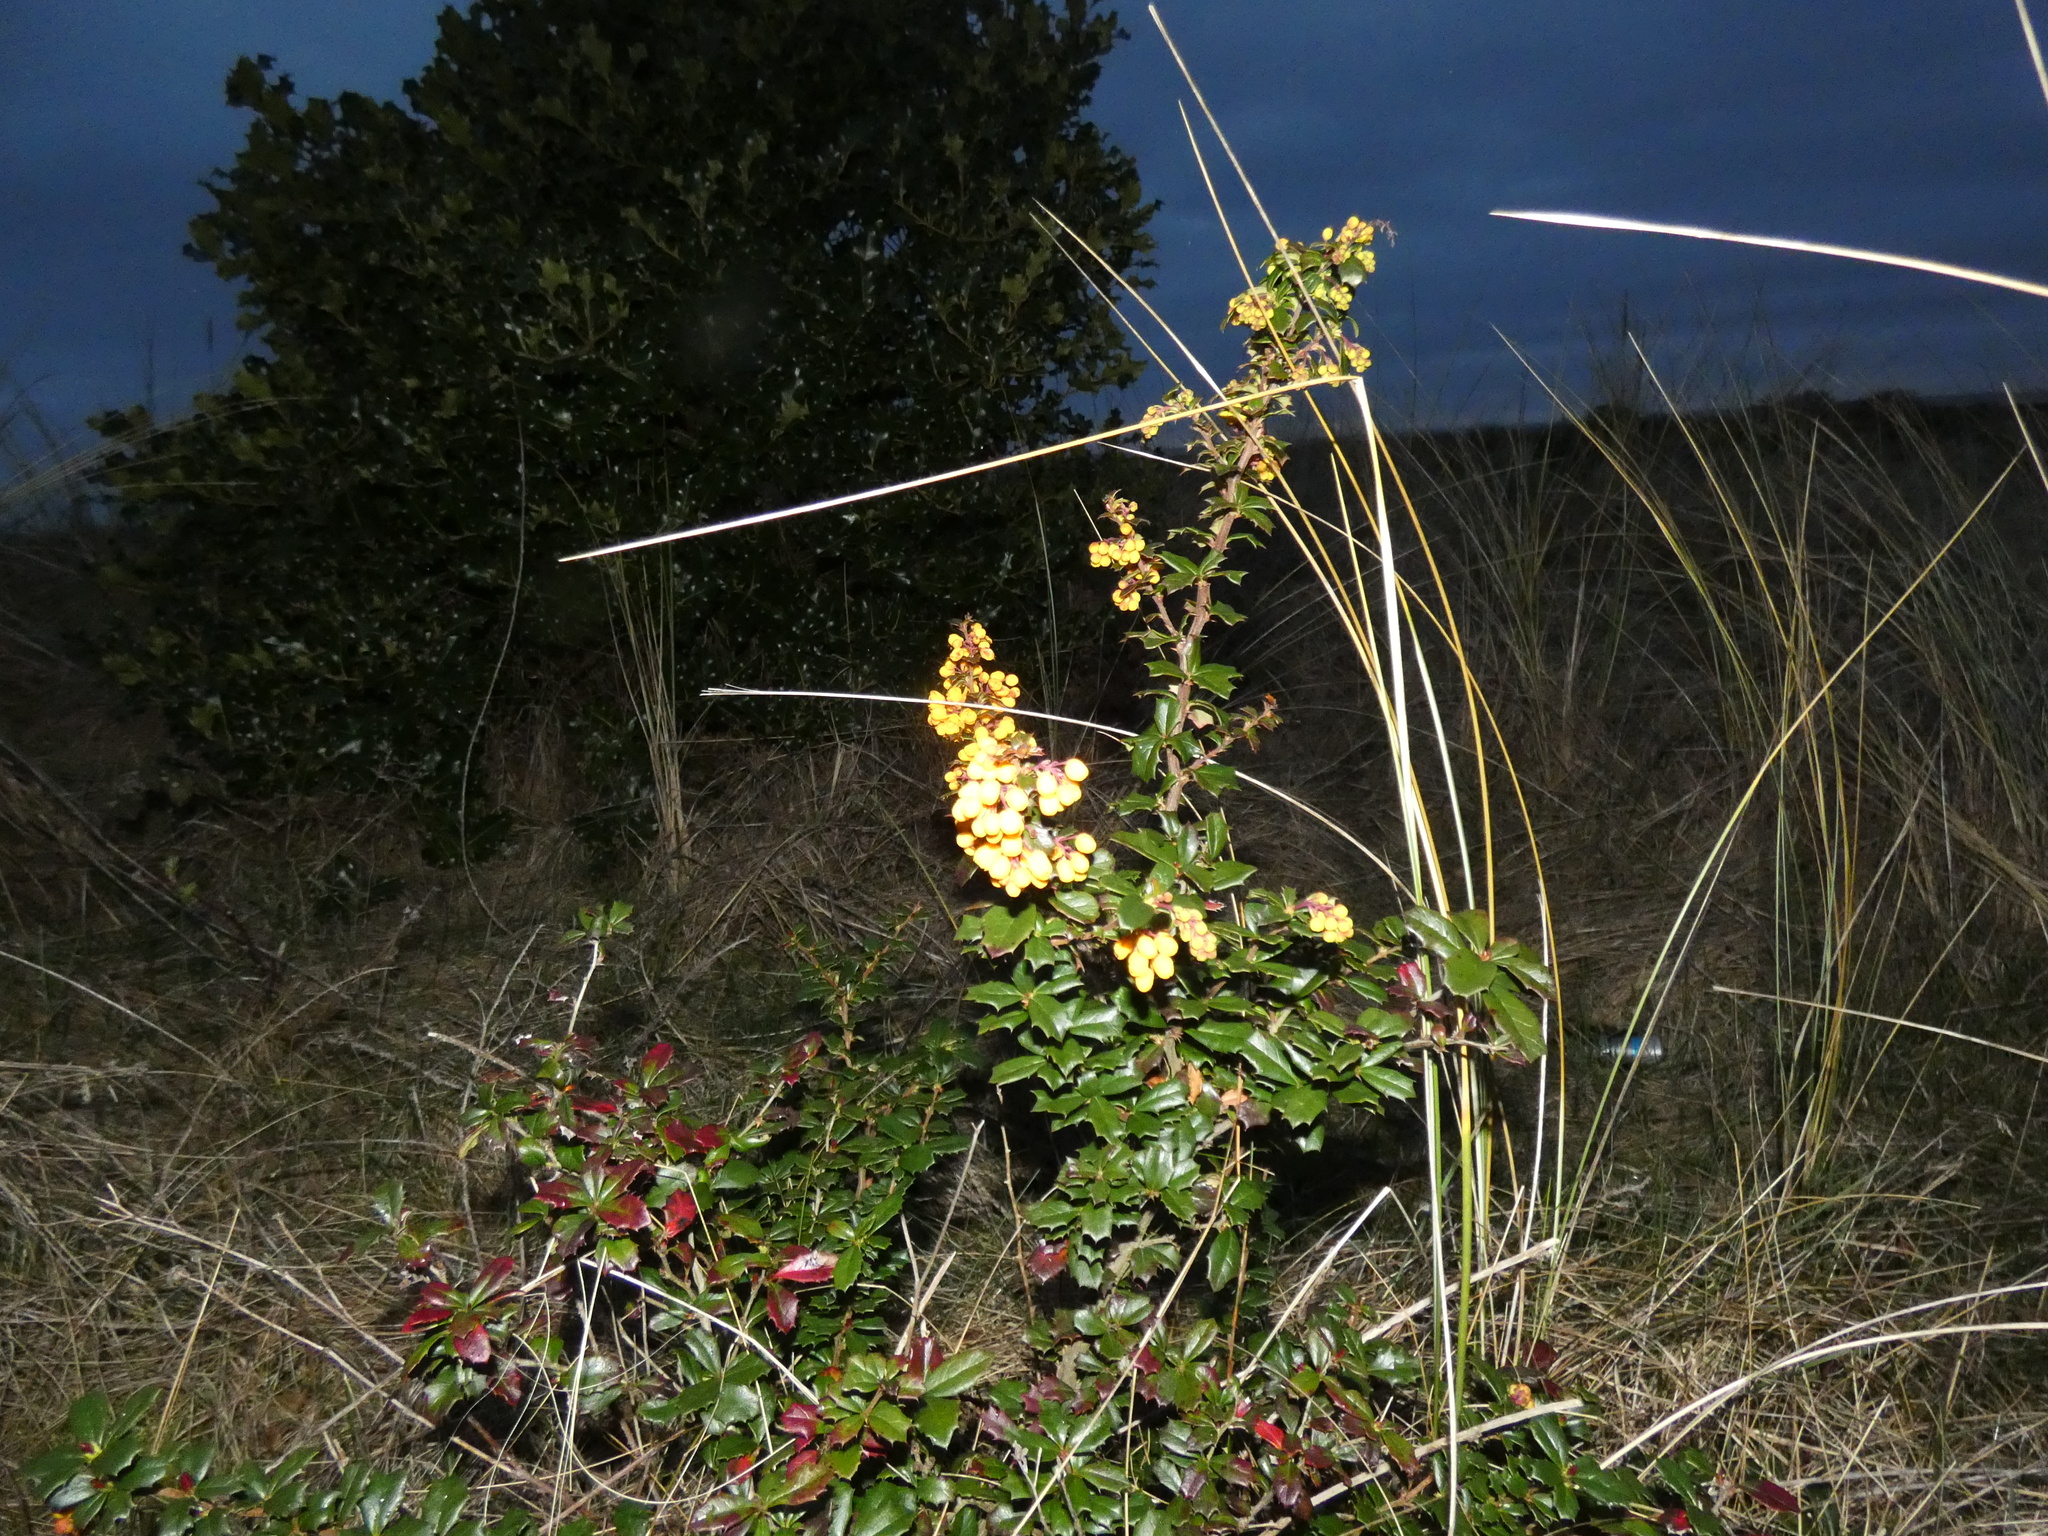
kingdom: Plantae
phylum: Tracheophyta
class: Magnoliopsida
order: Ranunculales
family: Berberidaceae
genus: Berberis
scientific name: Berberis darwinii
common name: Darwin's barberry
